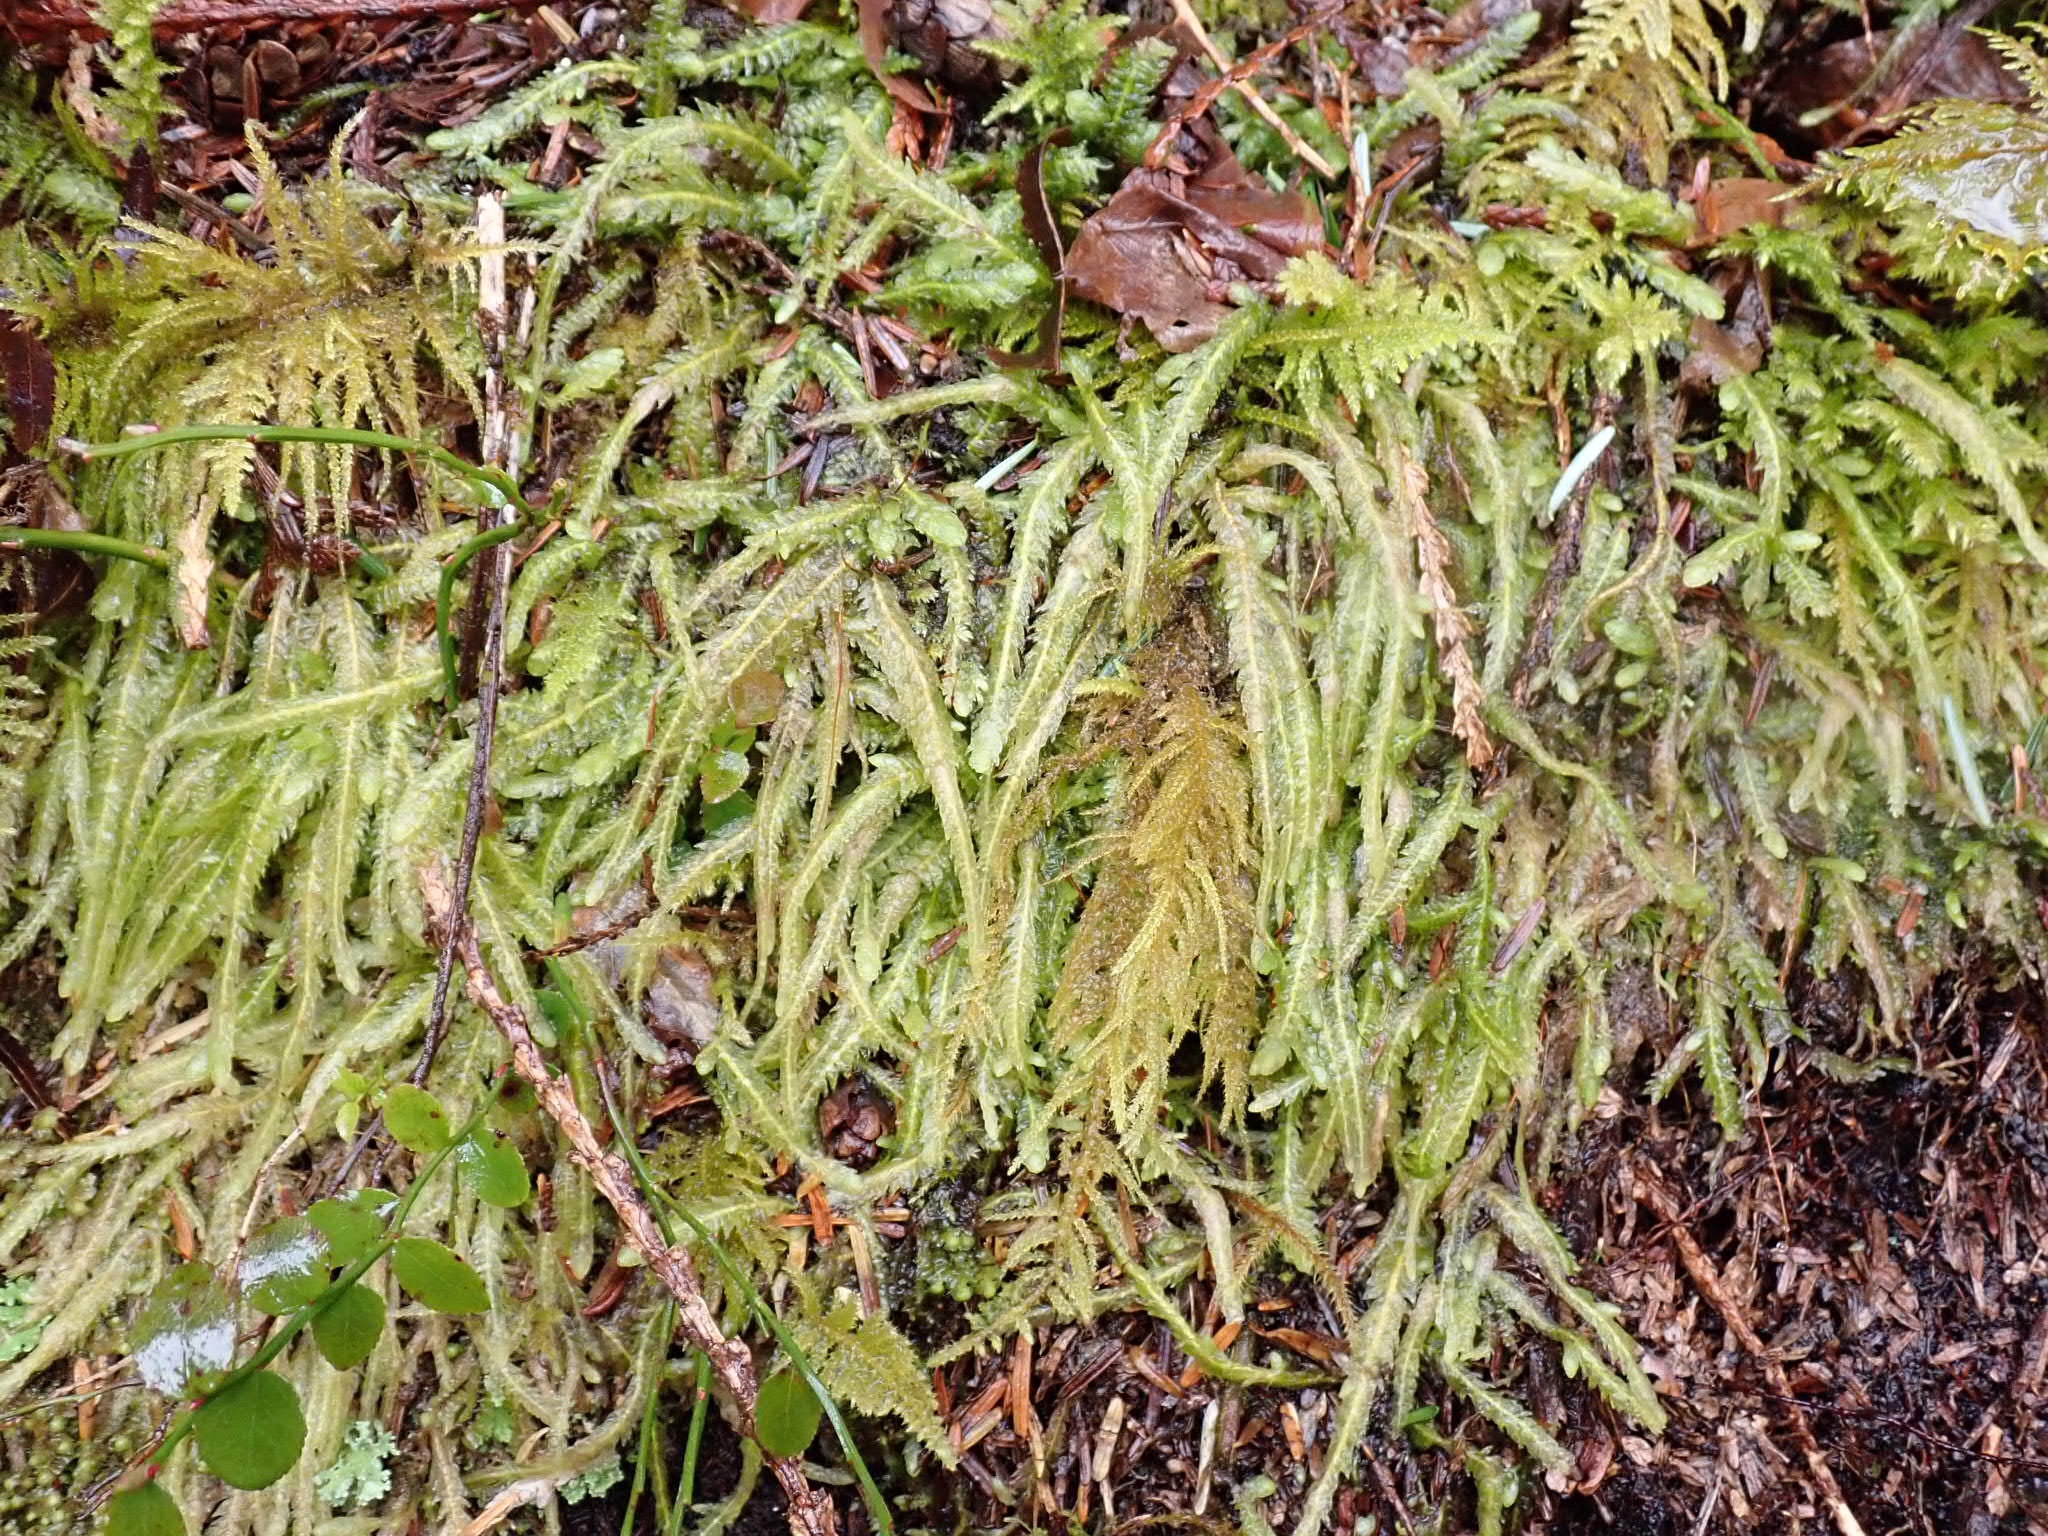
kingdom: Plantae
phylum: Bryophyta
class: Bryopsida
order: Hypnales
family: Plagiotheciaceae
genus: Plagiothecium
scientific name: Plagiothecium undulatum
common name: Waved silk-moss
